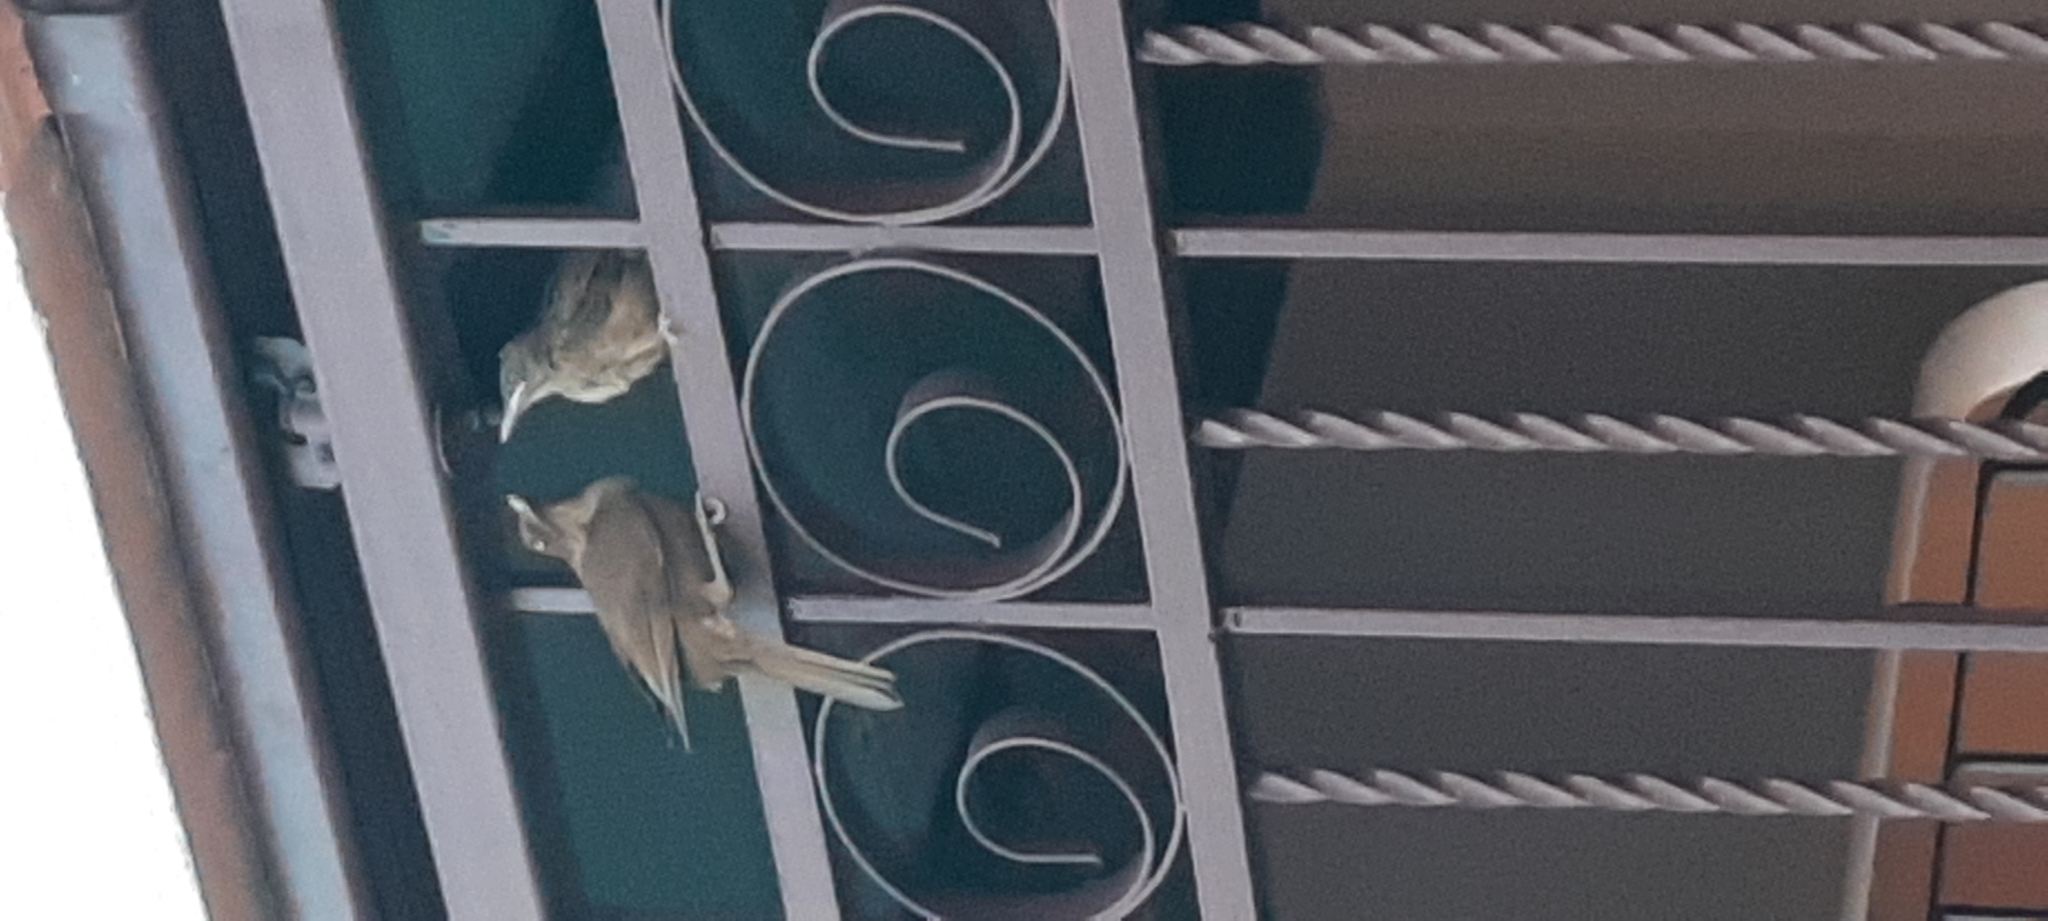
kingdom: Animalia
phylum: Chordata
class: Aves
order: Passeriformes
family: Turdidae
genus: Turdus
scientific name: Turdus grayi
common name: Clay-colored thrush
